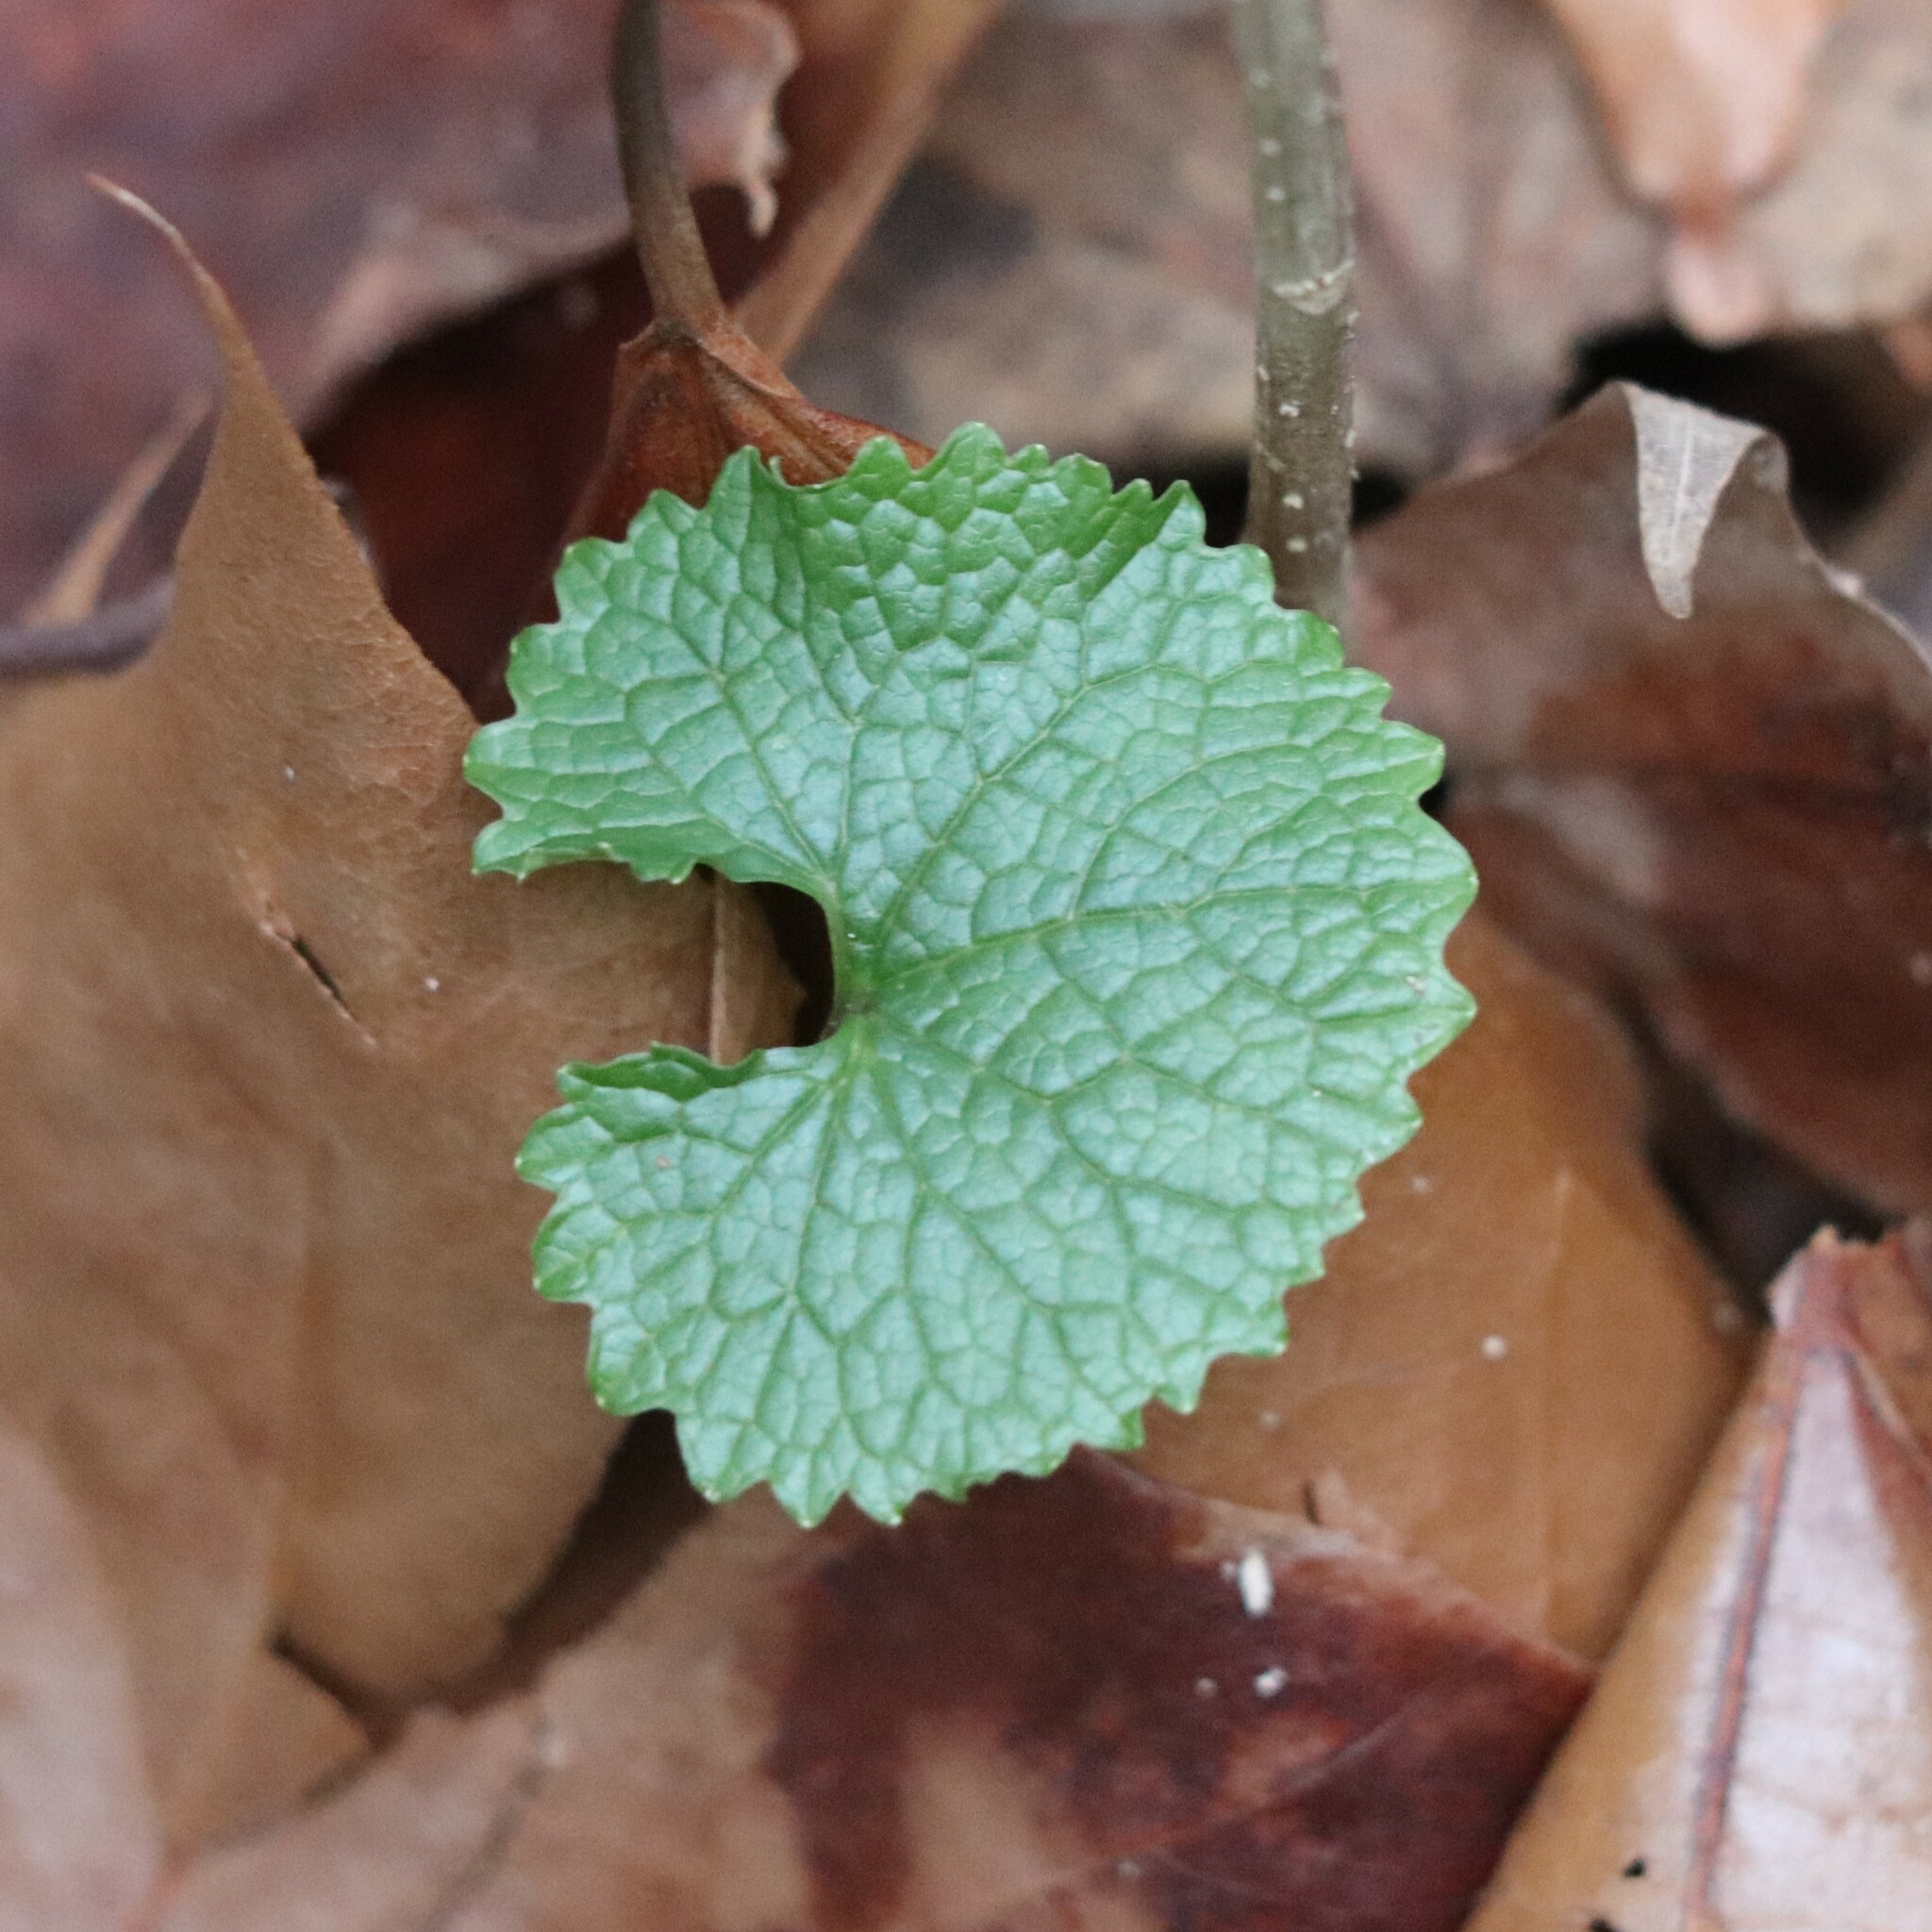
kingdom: Plantae
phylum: Tracheophyta
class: Magnoliopsida
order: Brassicales
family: Brassicaceae
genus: Alliaria
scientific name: Alliaria petiolata
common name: Garlic mustard
